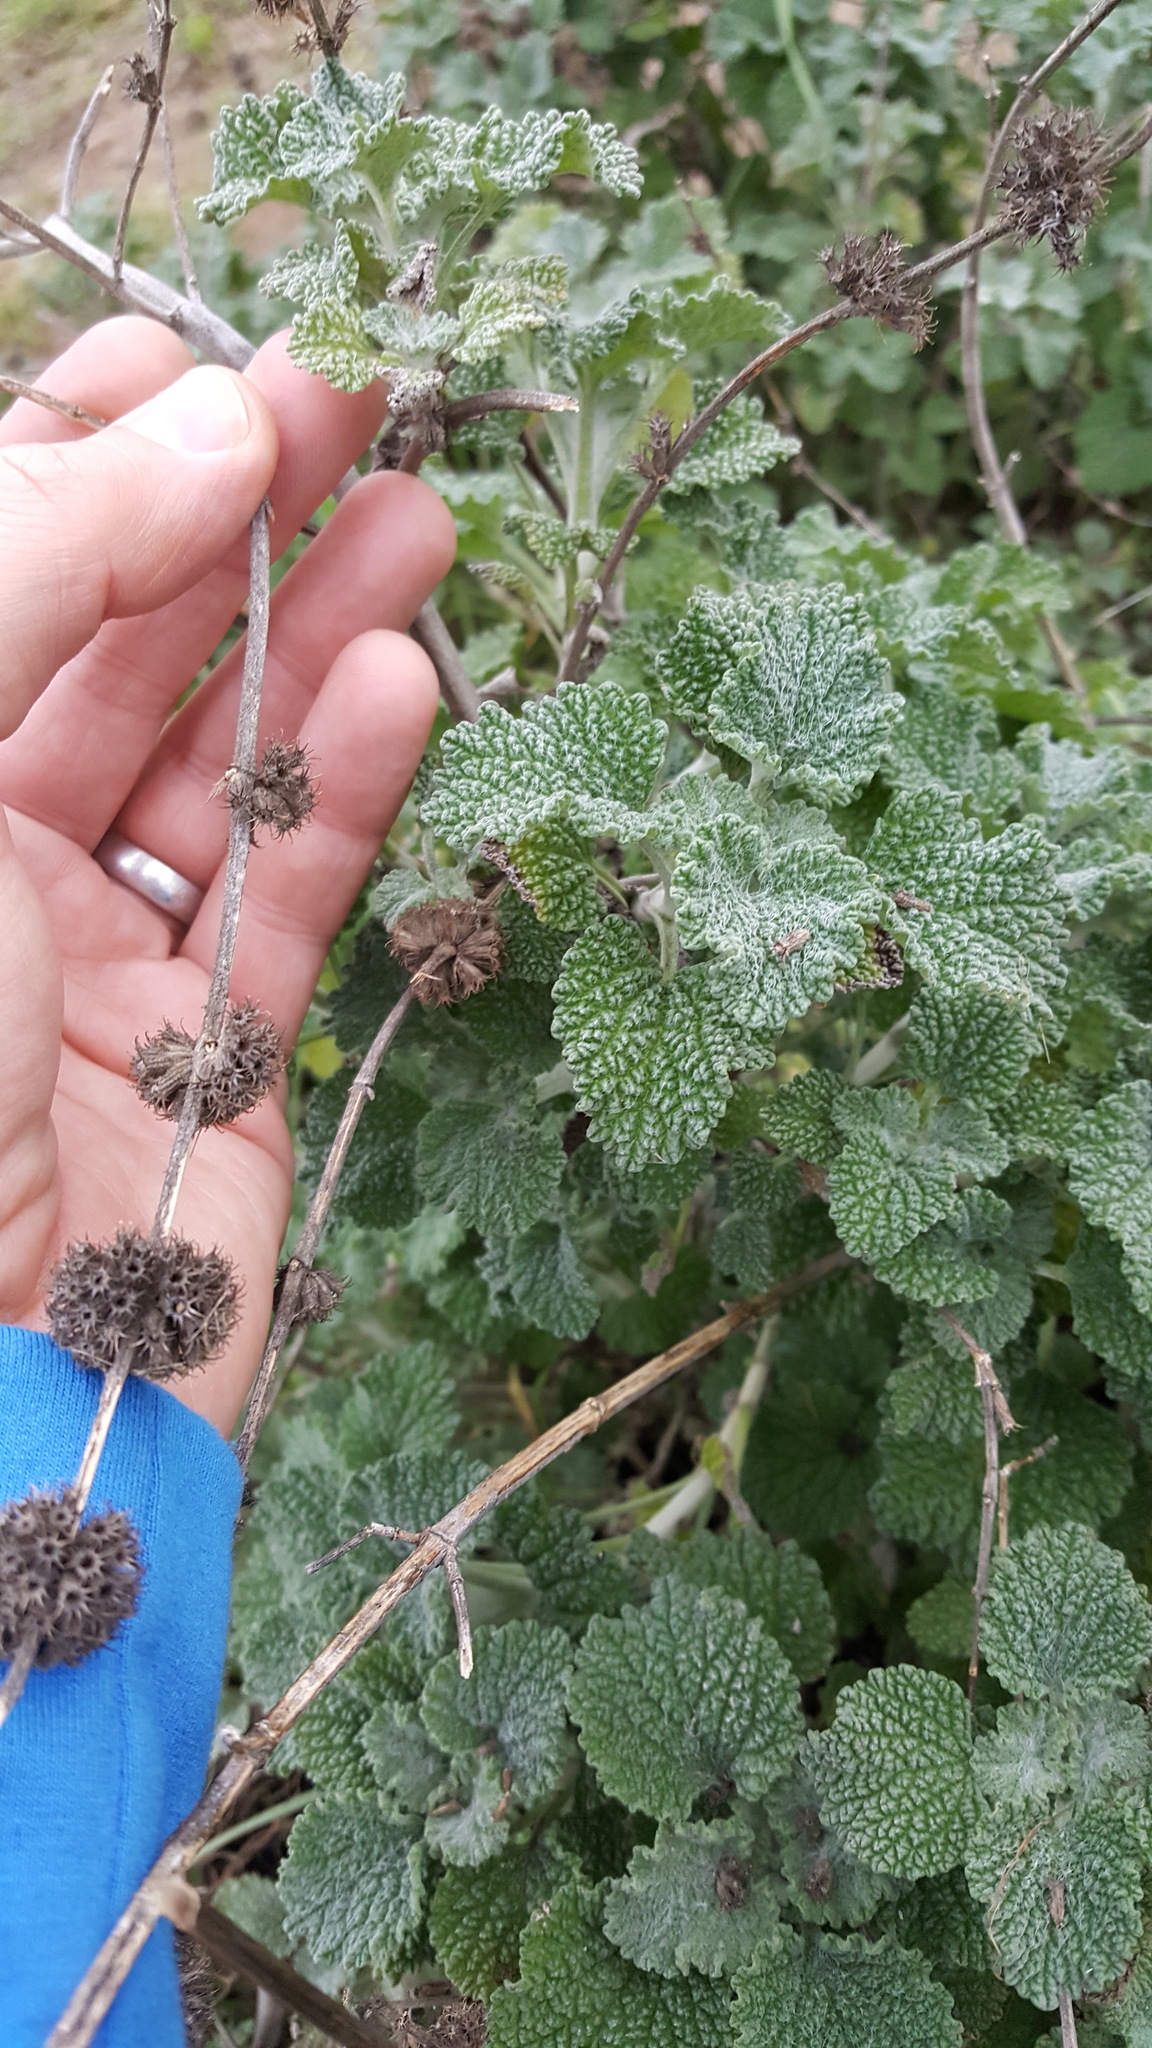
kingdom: Plantae
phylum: Tracheophyta
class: Magnoliopsida
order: Lamiales
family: Lamiaceae
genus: Marrubium
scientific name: Marrubium vulgare
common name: Horehound
